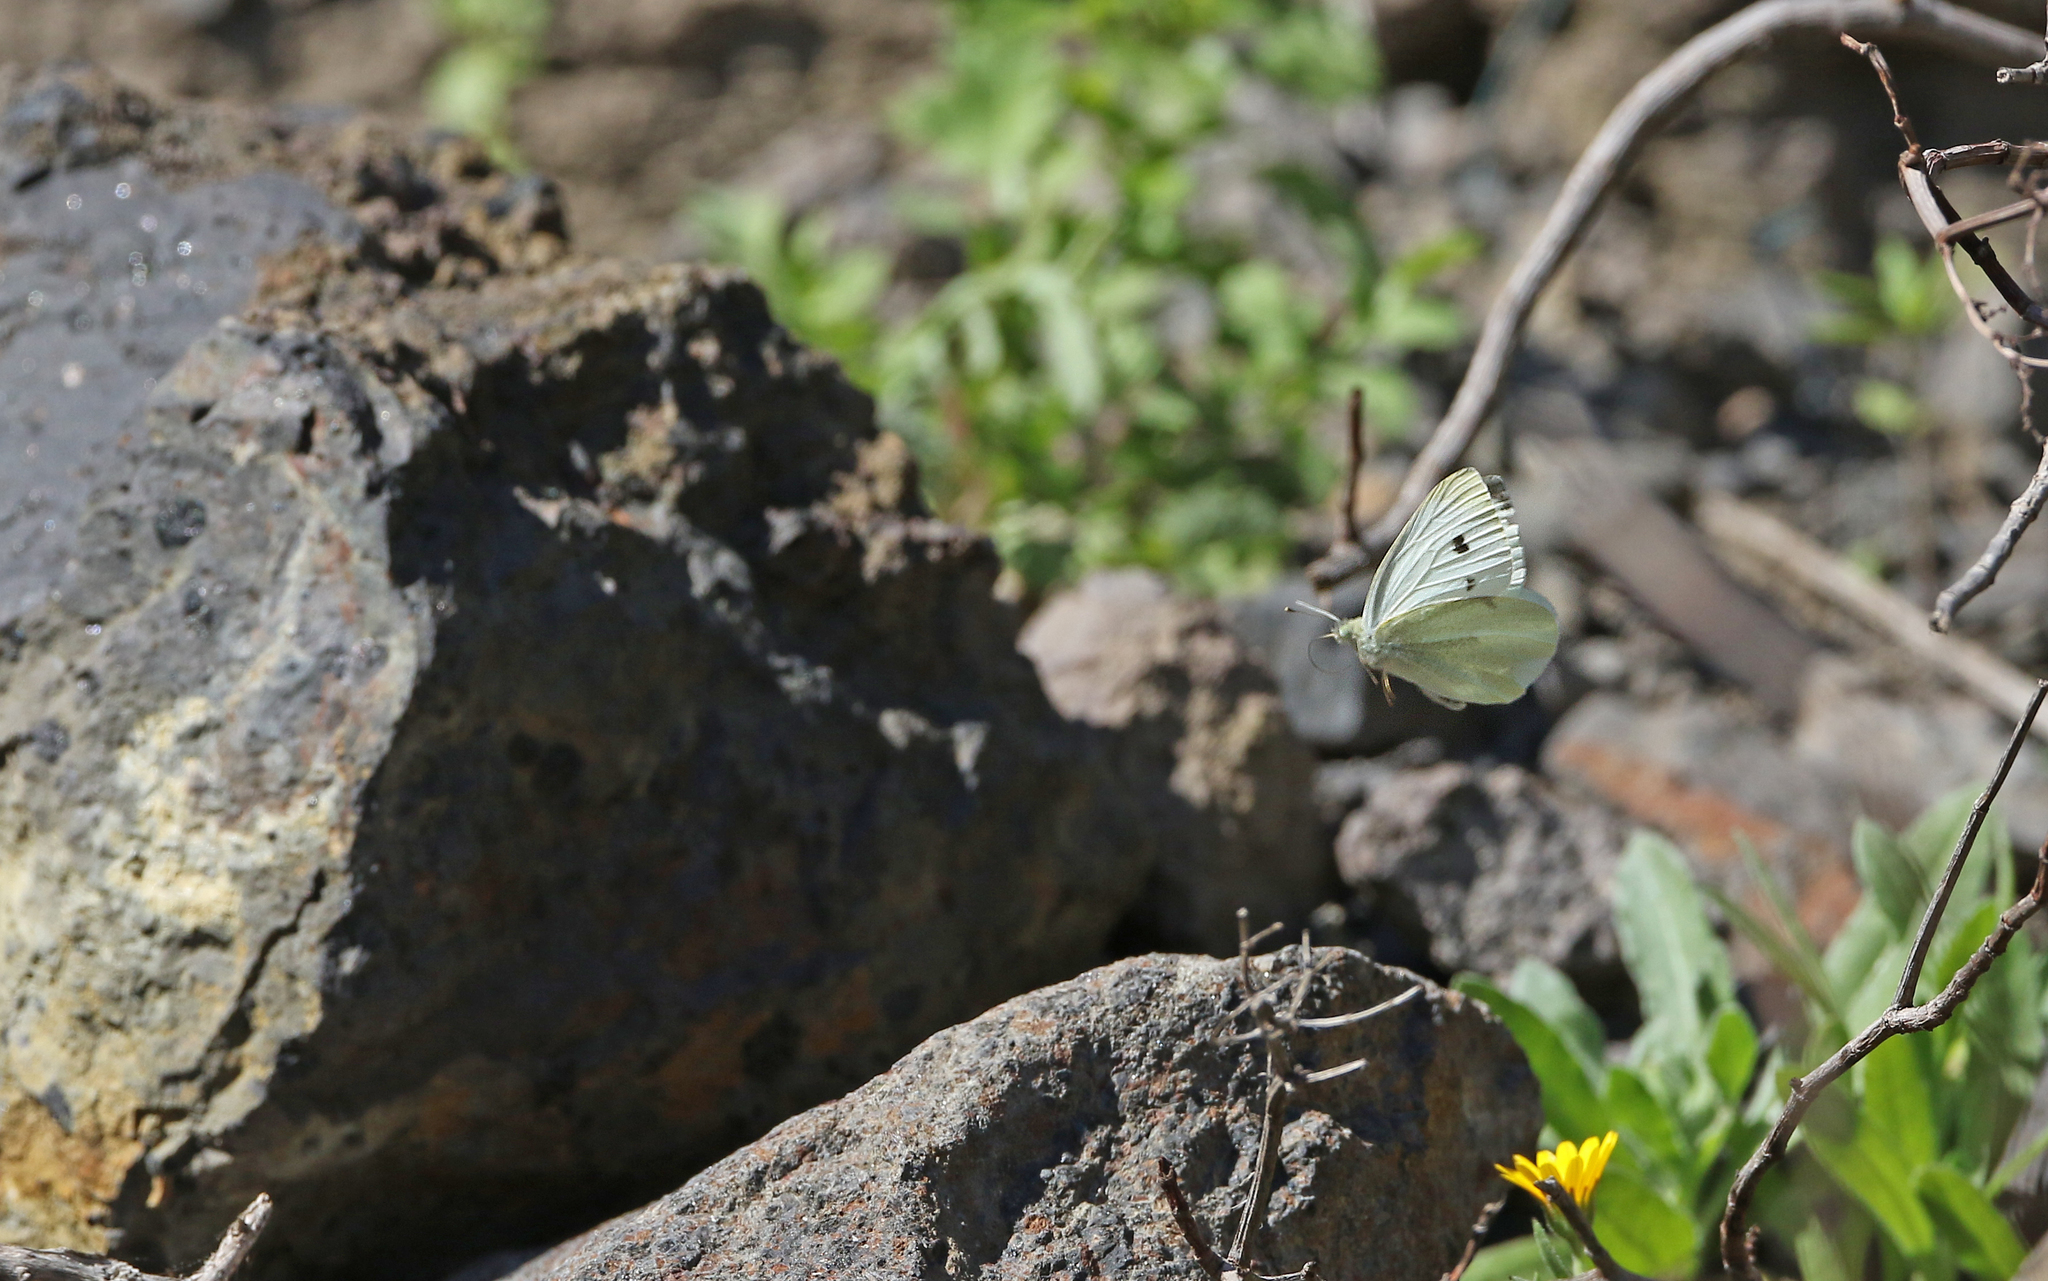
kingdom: Animalia
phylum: Arthropoda
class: Insecta
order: Lepidoptera
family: Pieridae
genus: Pieris
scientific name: Pieris rapae
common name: Small white
